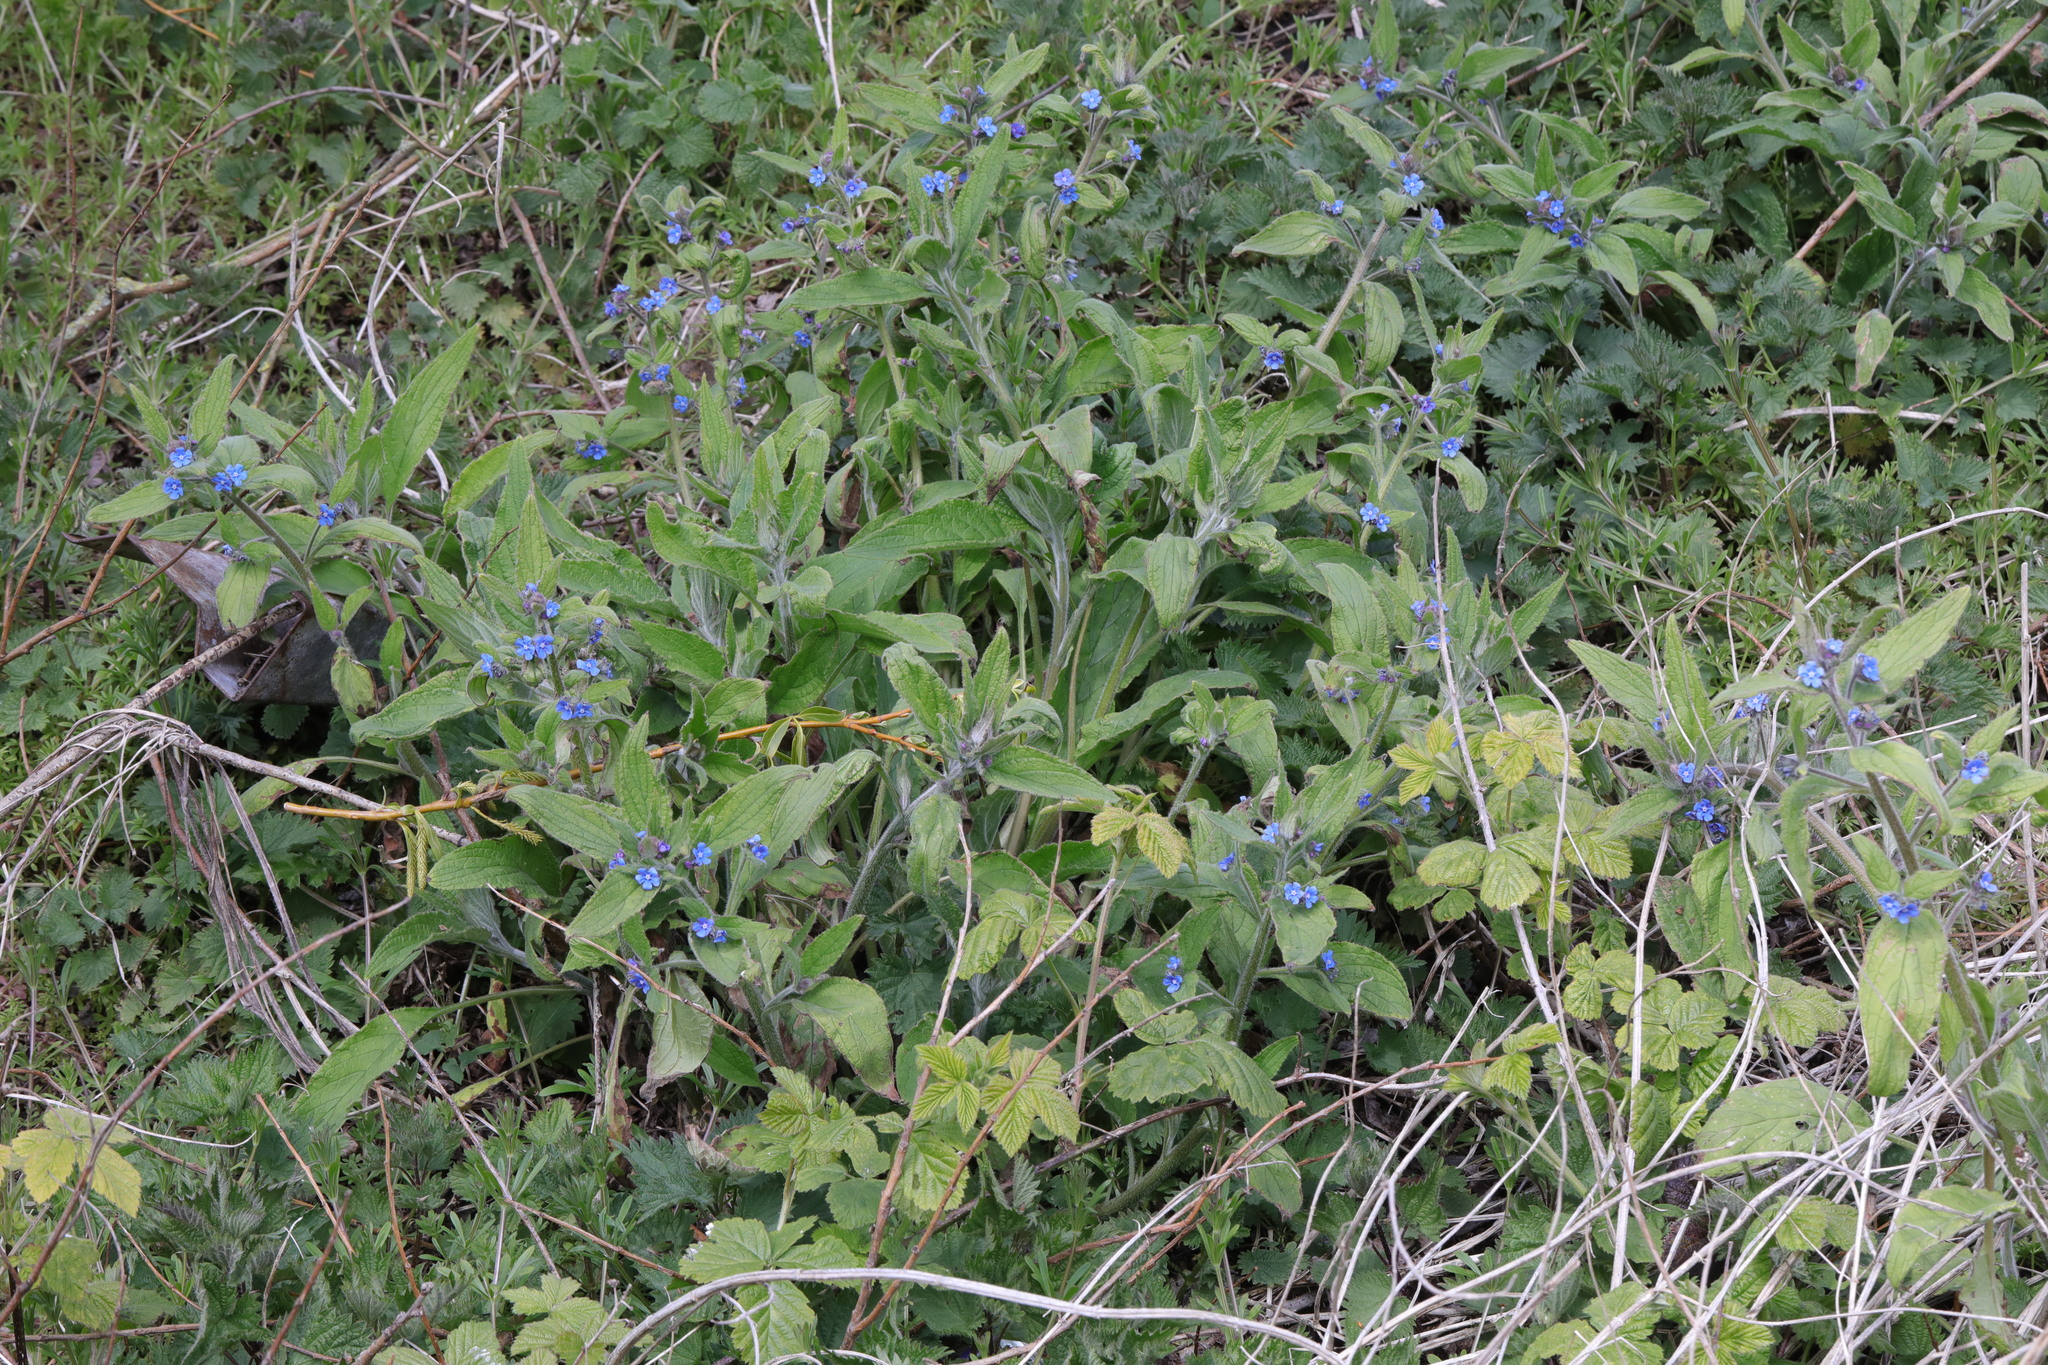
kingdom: Plantae
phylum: Tracheophyta
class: Magnoliopsida
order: Boraginales
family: Boraginaceae
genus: Pentaglottis
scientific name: Pentaglottis sempervirens
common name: Green alkanet
